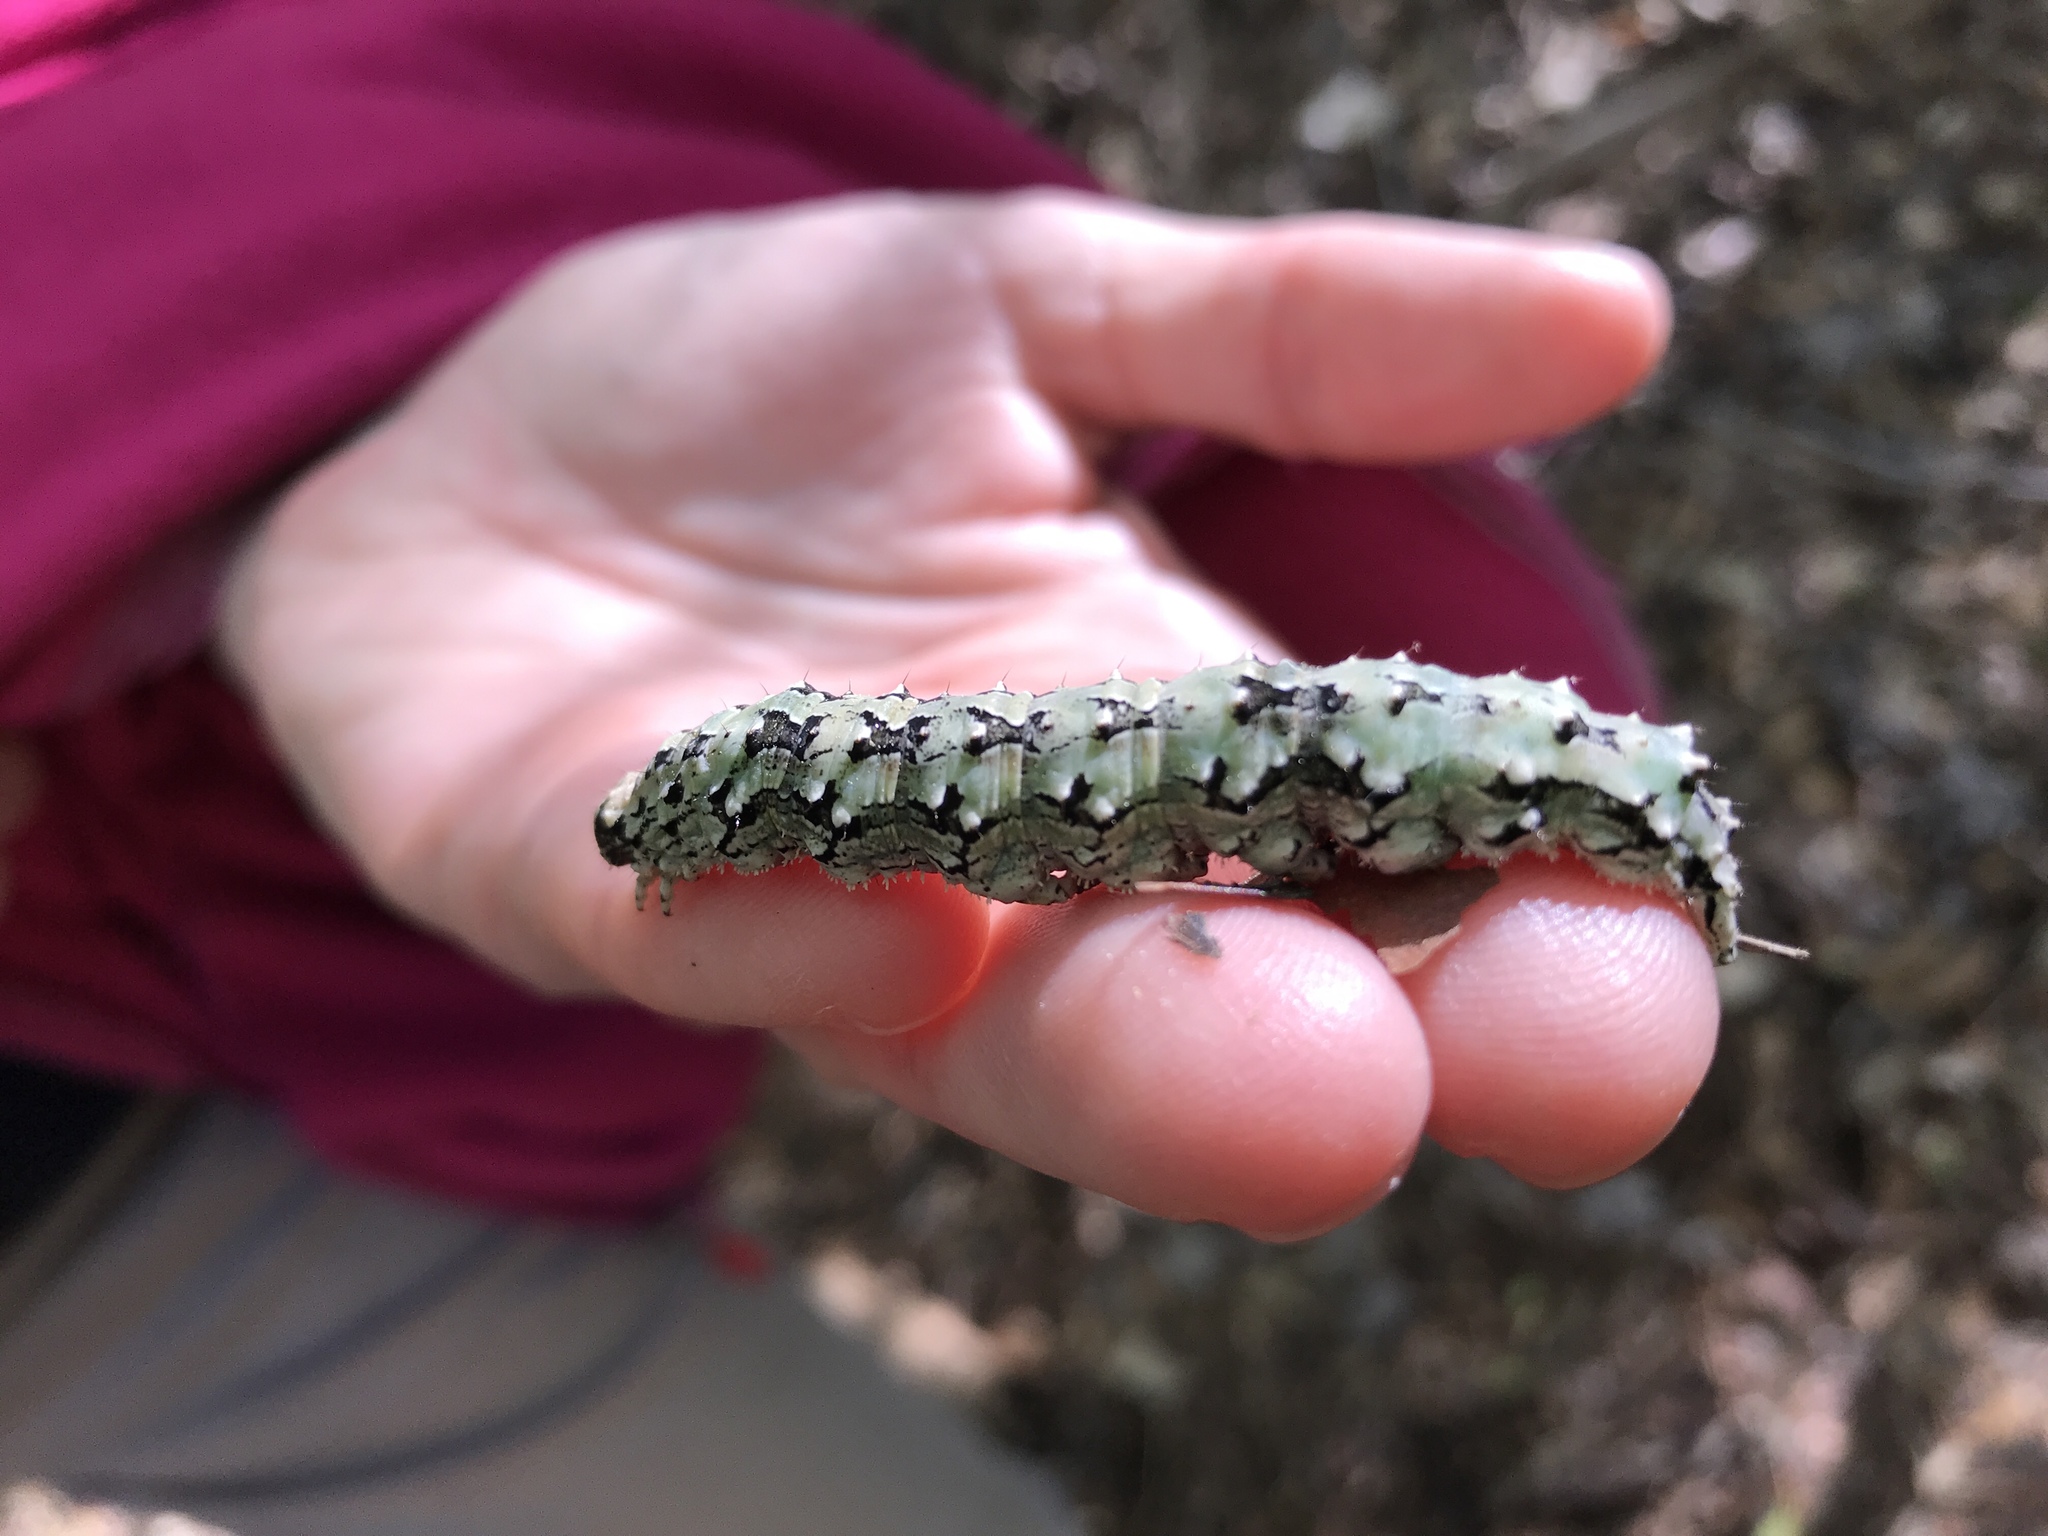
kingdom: Animalia
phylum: Arthropoda
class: Insecta
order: Lepidoptera
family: Erebidae
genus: Catocala
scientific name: Catocala ilia
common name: Ilia underwing
